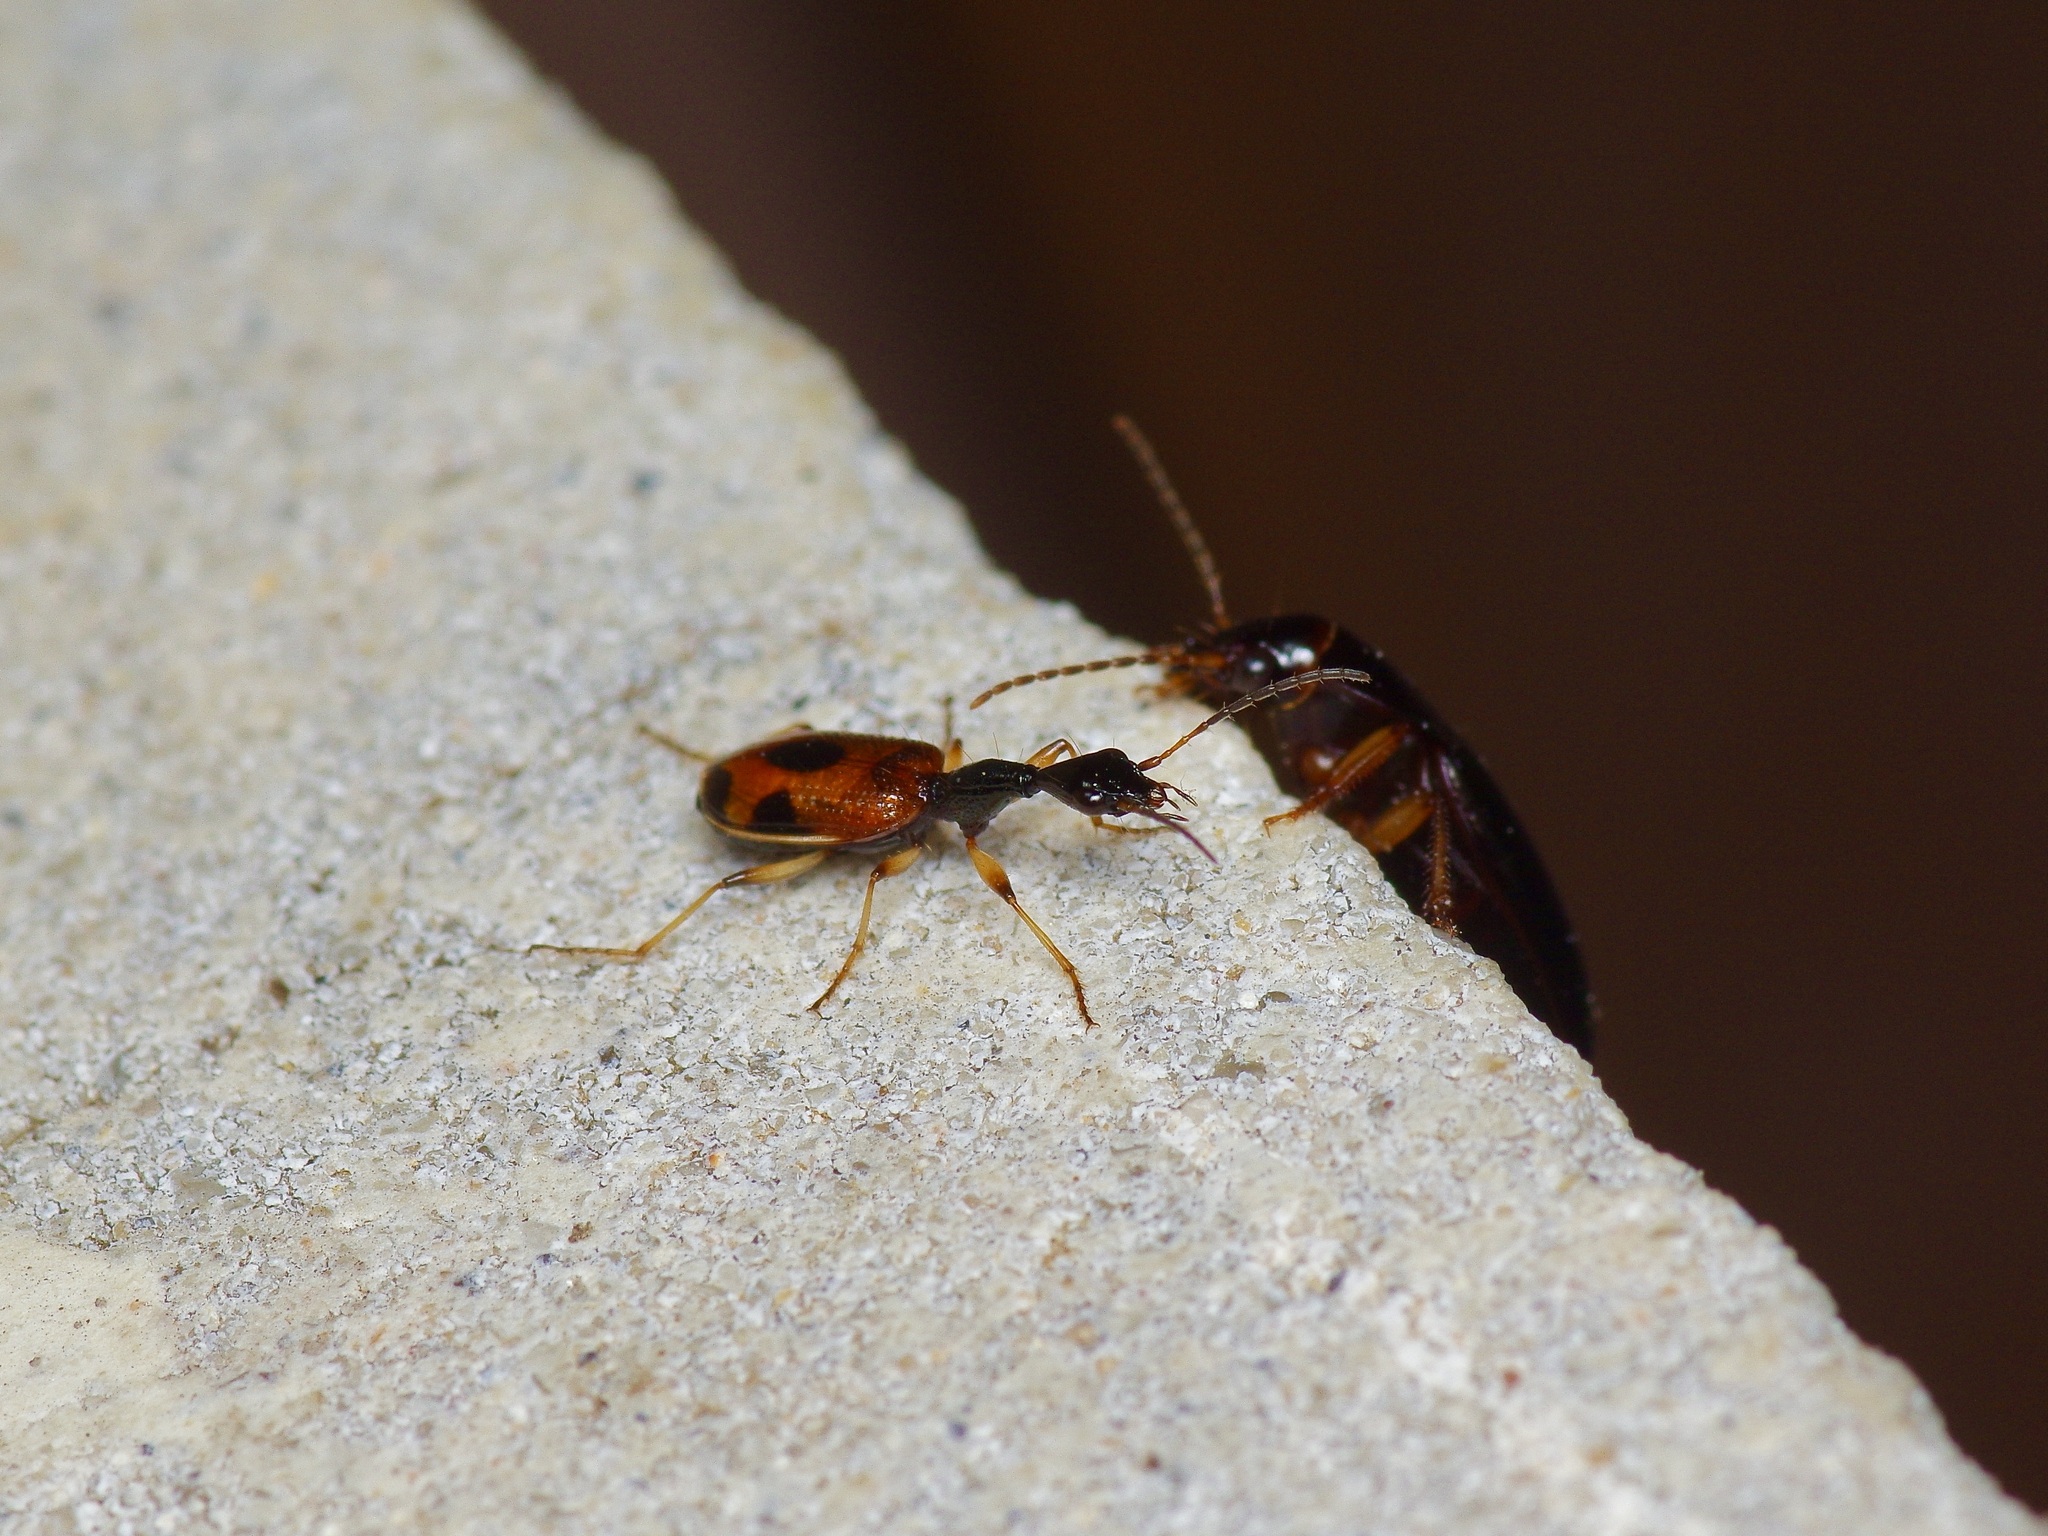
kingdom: Animalia
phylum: Arthropoda
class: Insecta
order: Coleoptera
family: Carabidae
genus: Colliuris
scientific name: Colliuris pensylvanica
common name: Long-necked ground beetle
